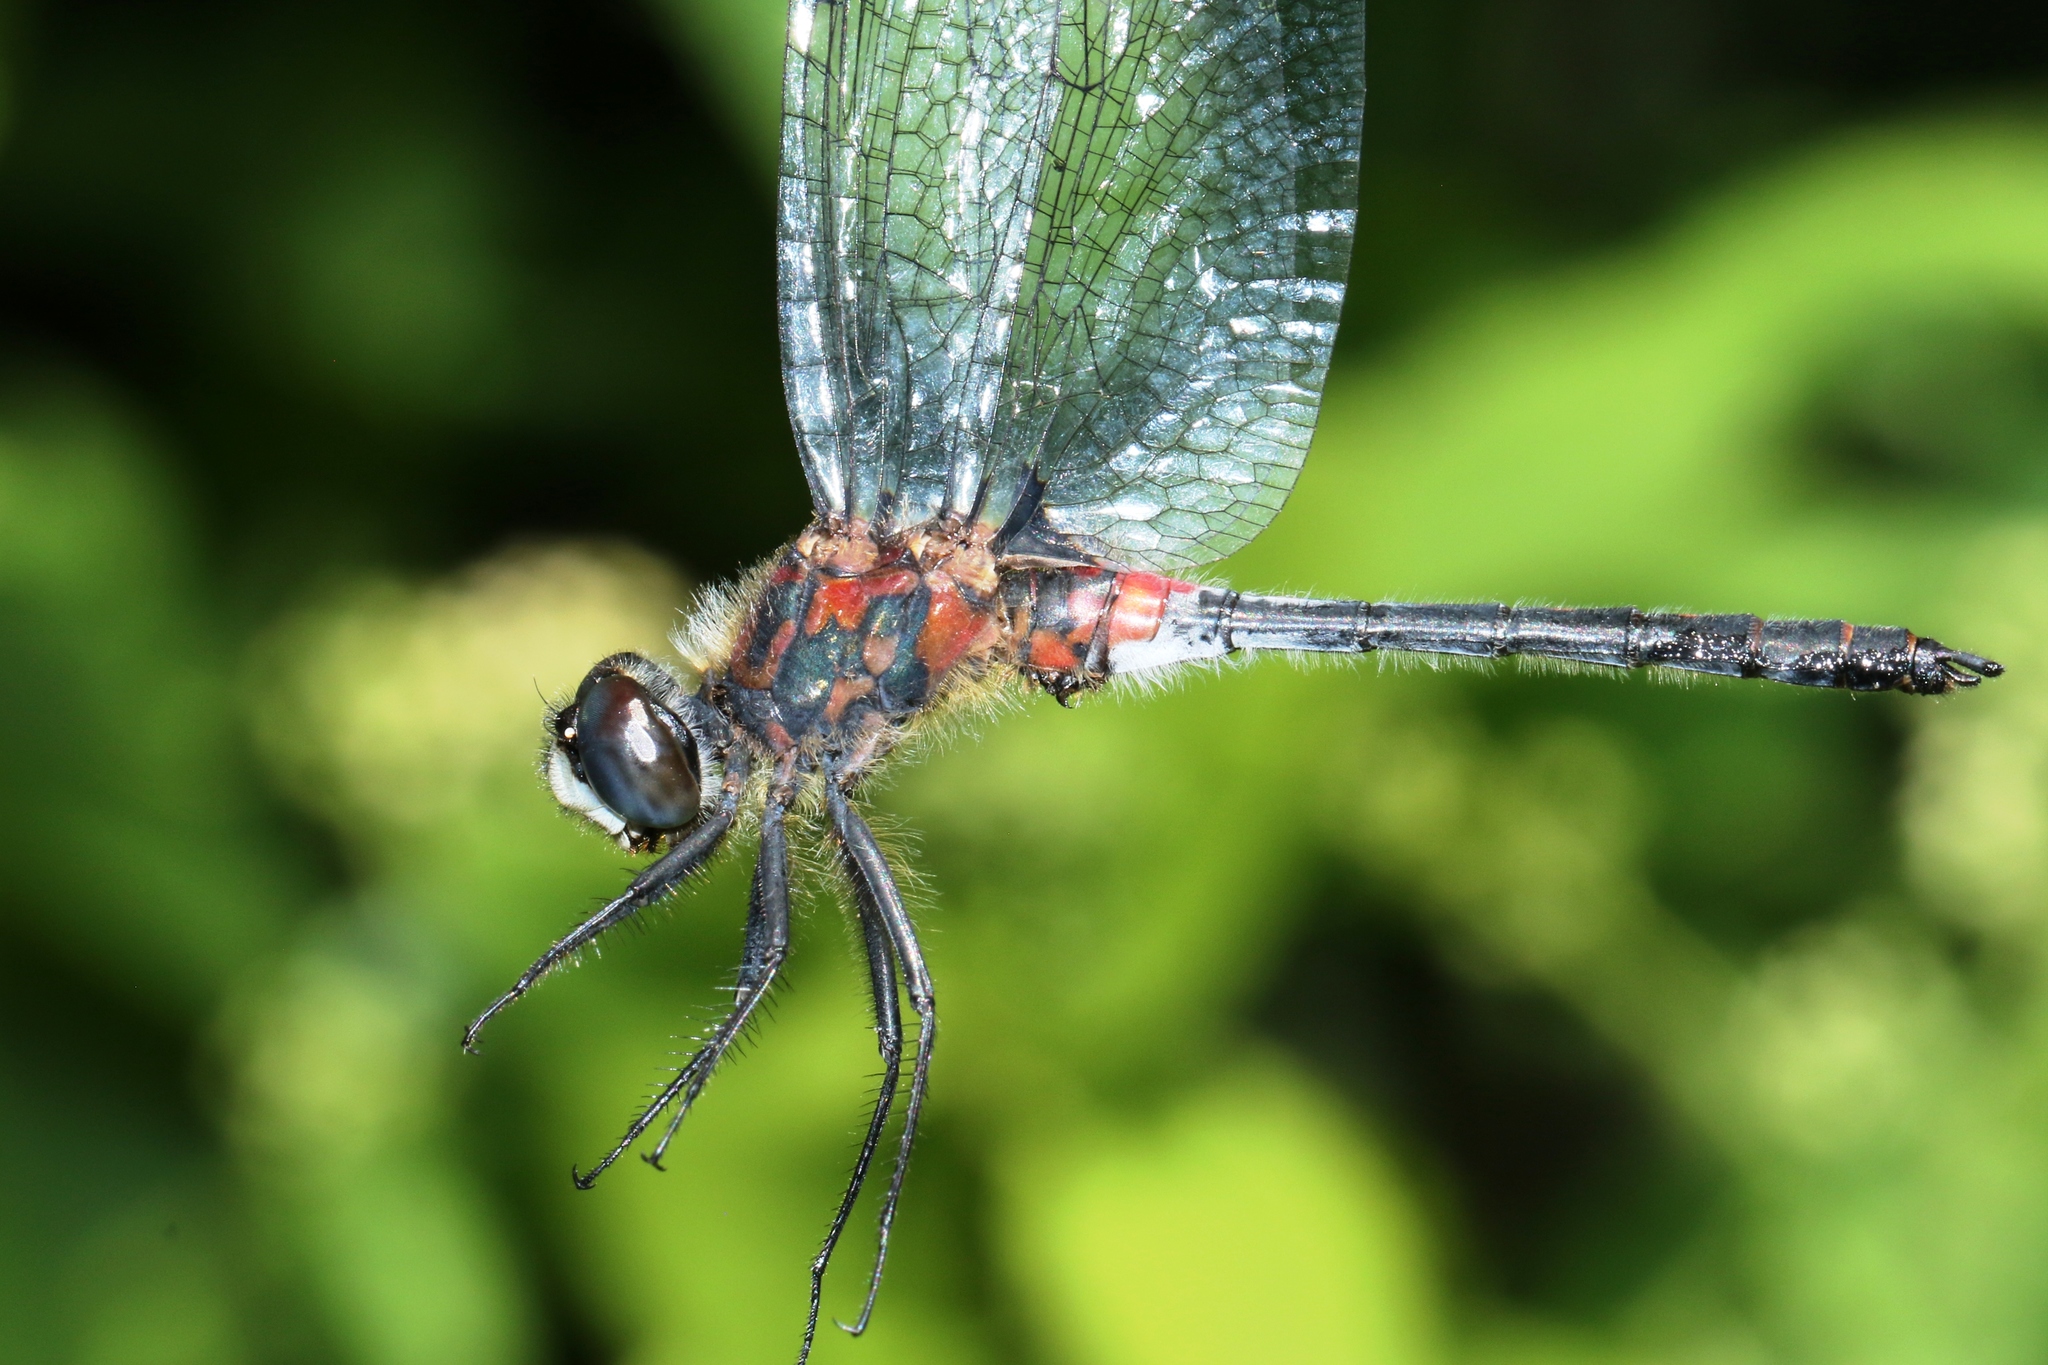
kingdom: Animalia
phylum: Arthropoda
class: Insecta
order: Odonata
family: Libellulidae
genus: Leucorrhinia
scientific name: Leucorrhinia proxima
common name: Belted whiteface
